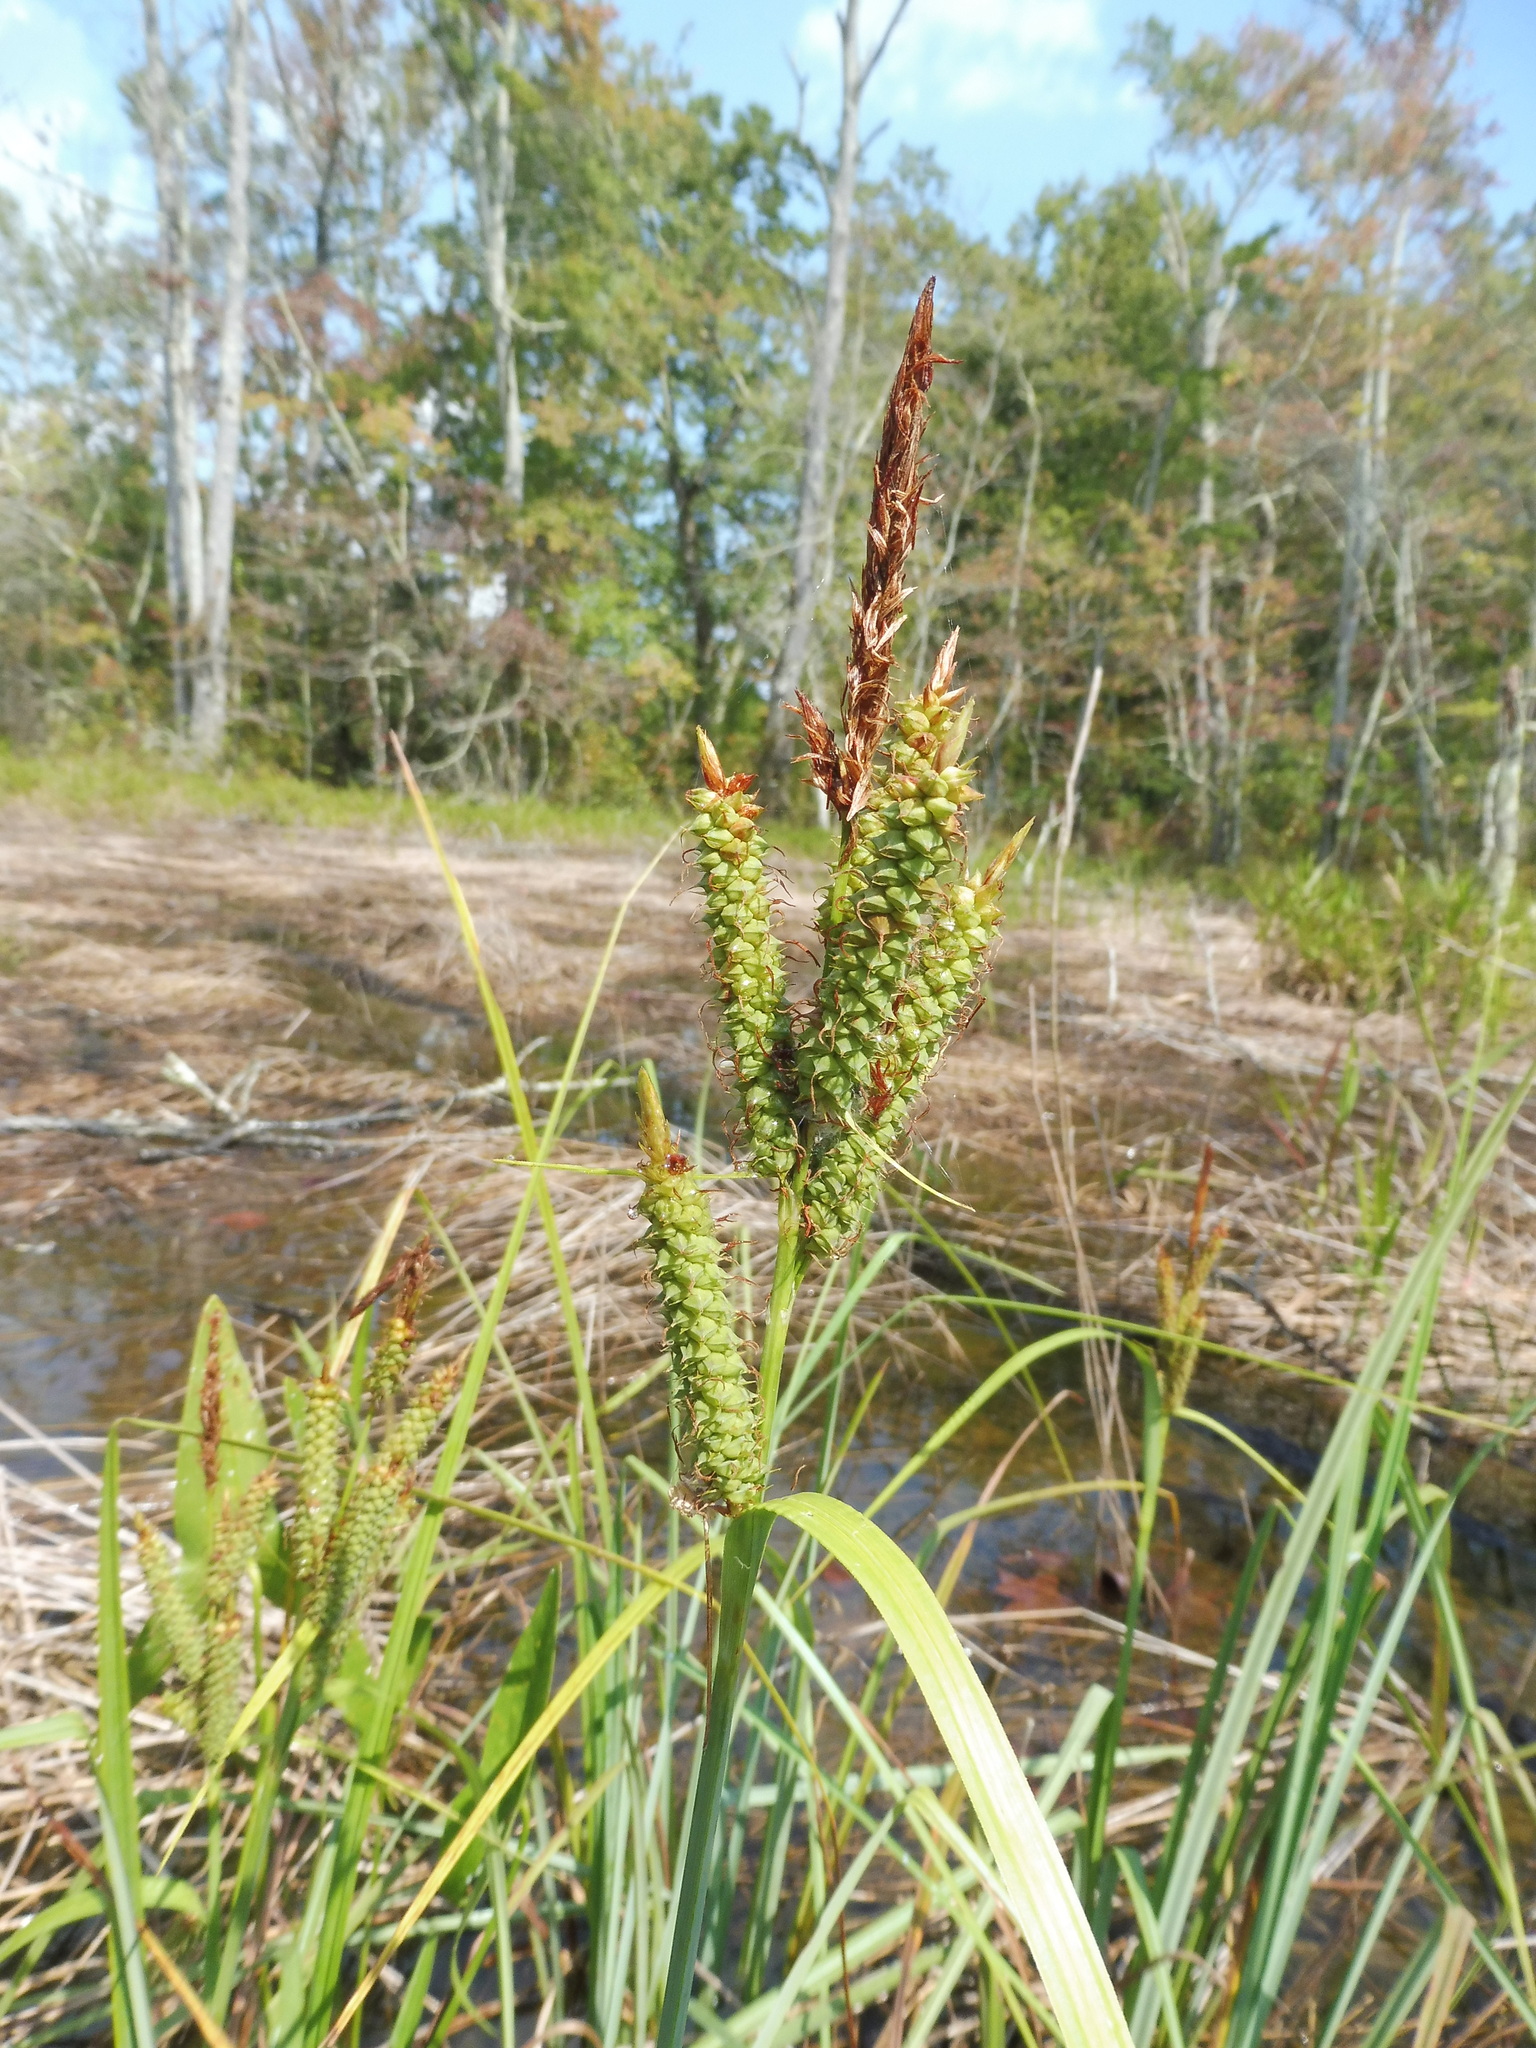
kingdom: Plantae
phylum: Tracheophyta
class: Liliopsida
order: Poales
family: Cyperaceae
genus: Carex
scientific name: Carex joorii
